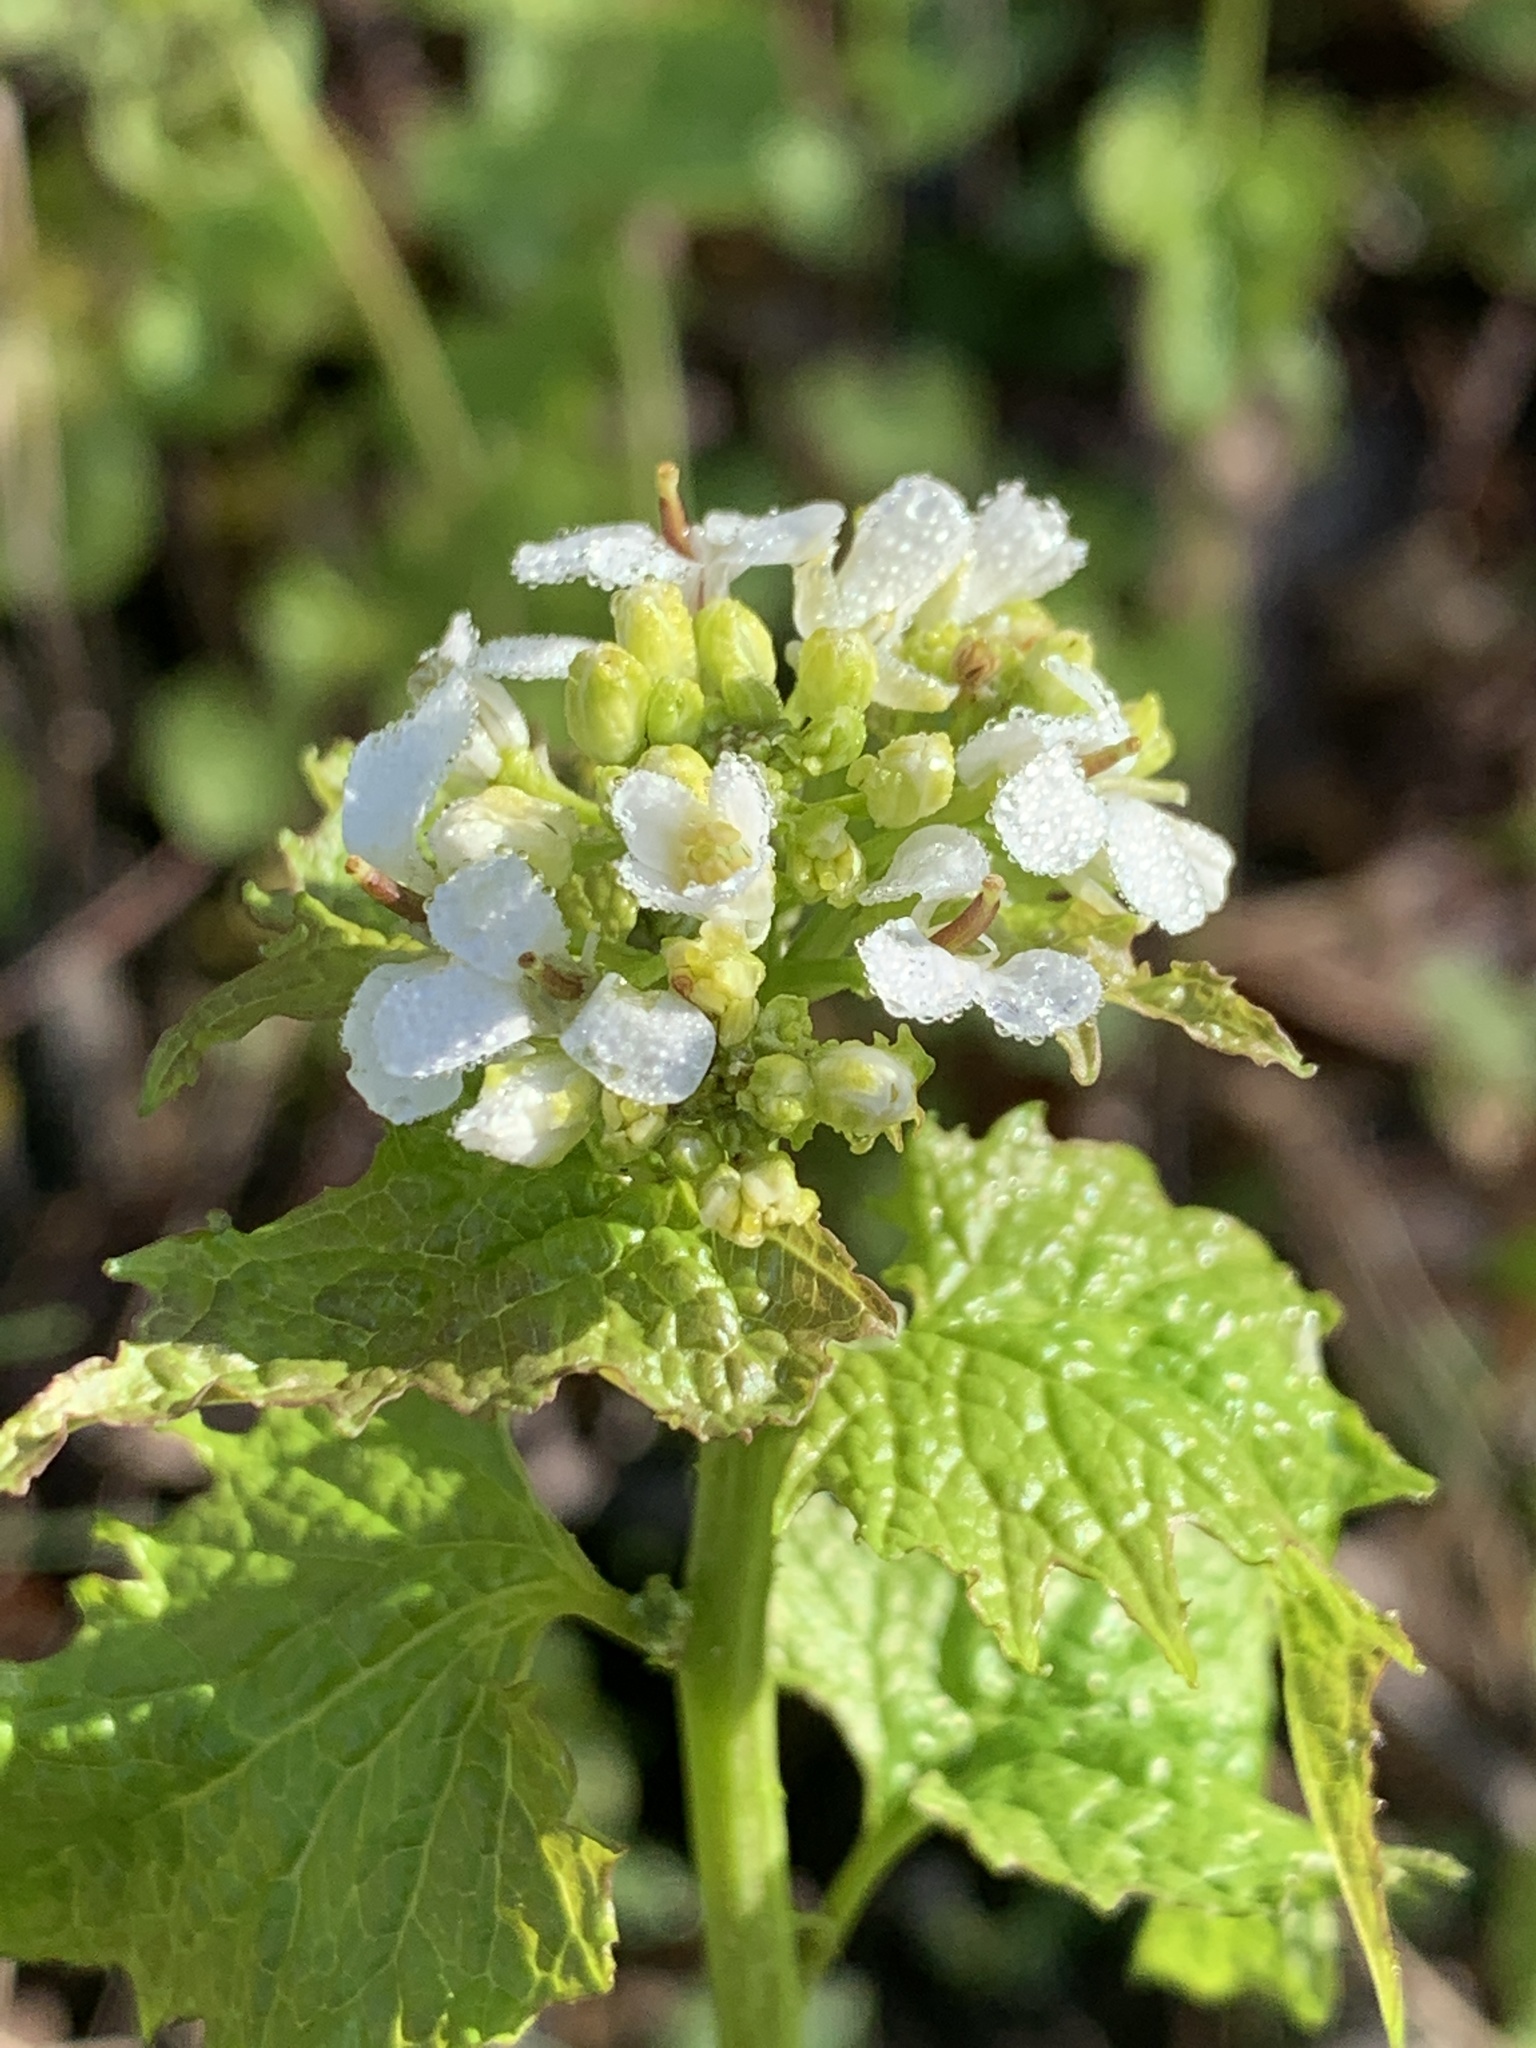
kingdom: Plantae
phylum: Tracheophyta
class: Magnoliopsida
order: Brassicales
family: Brassicaceae
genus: Alliaria
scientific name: Alliaria petiolata
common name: Garlic mustard
